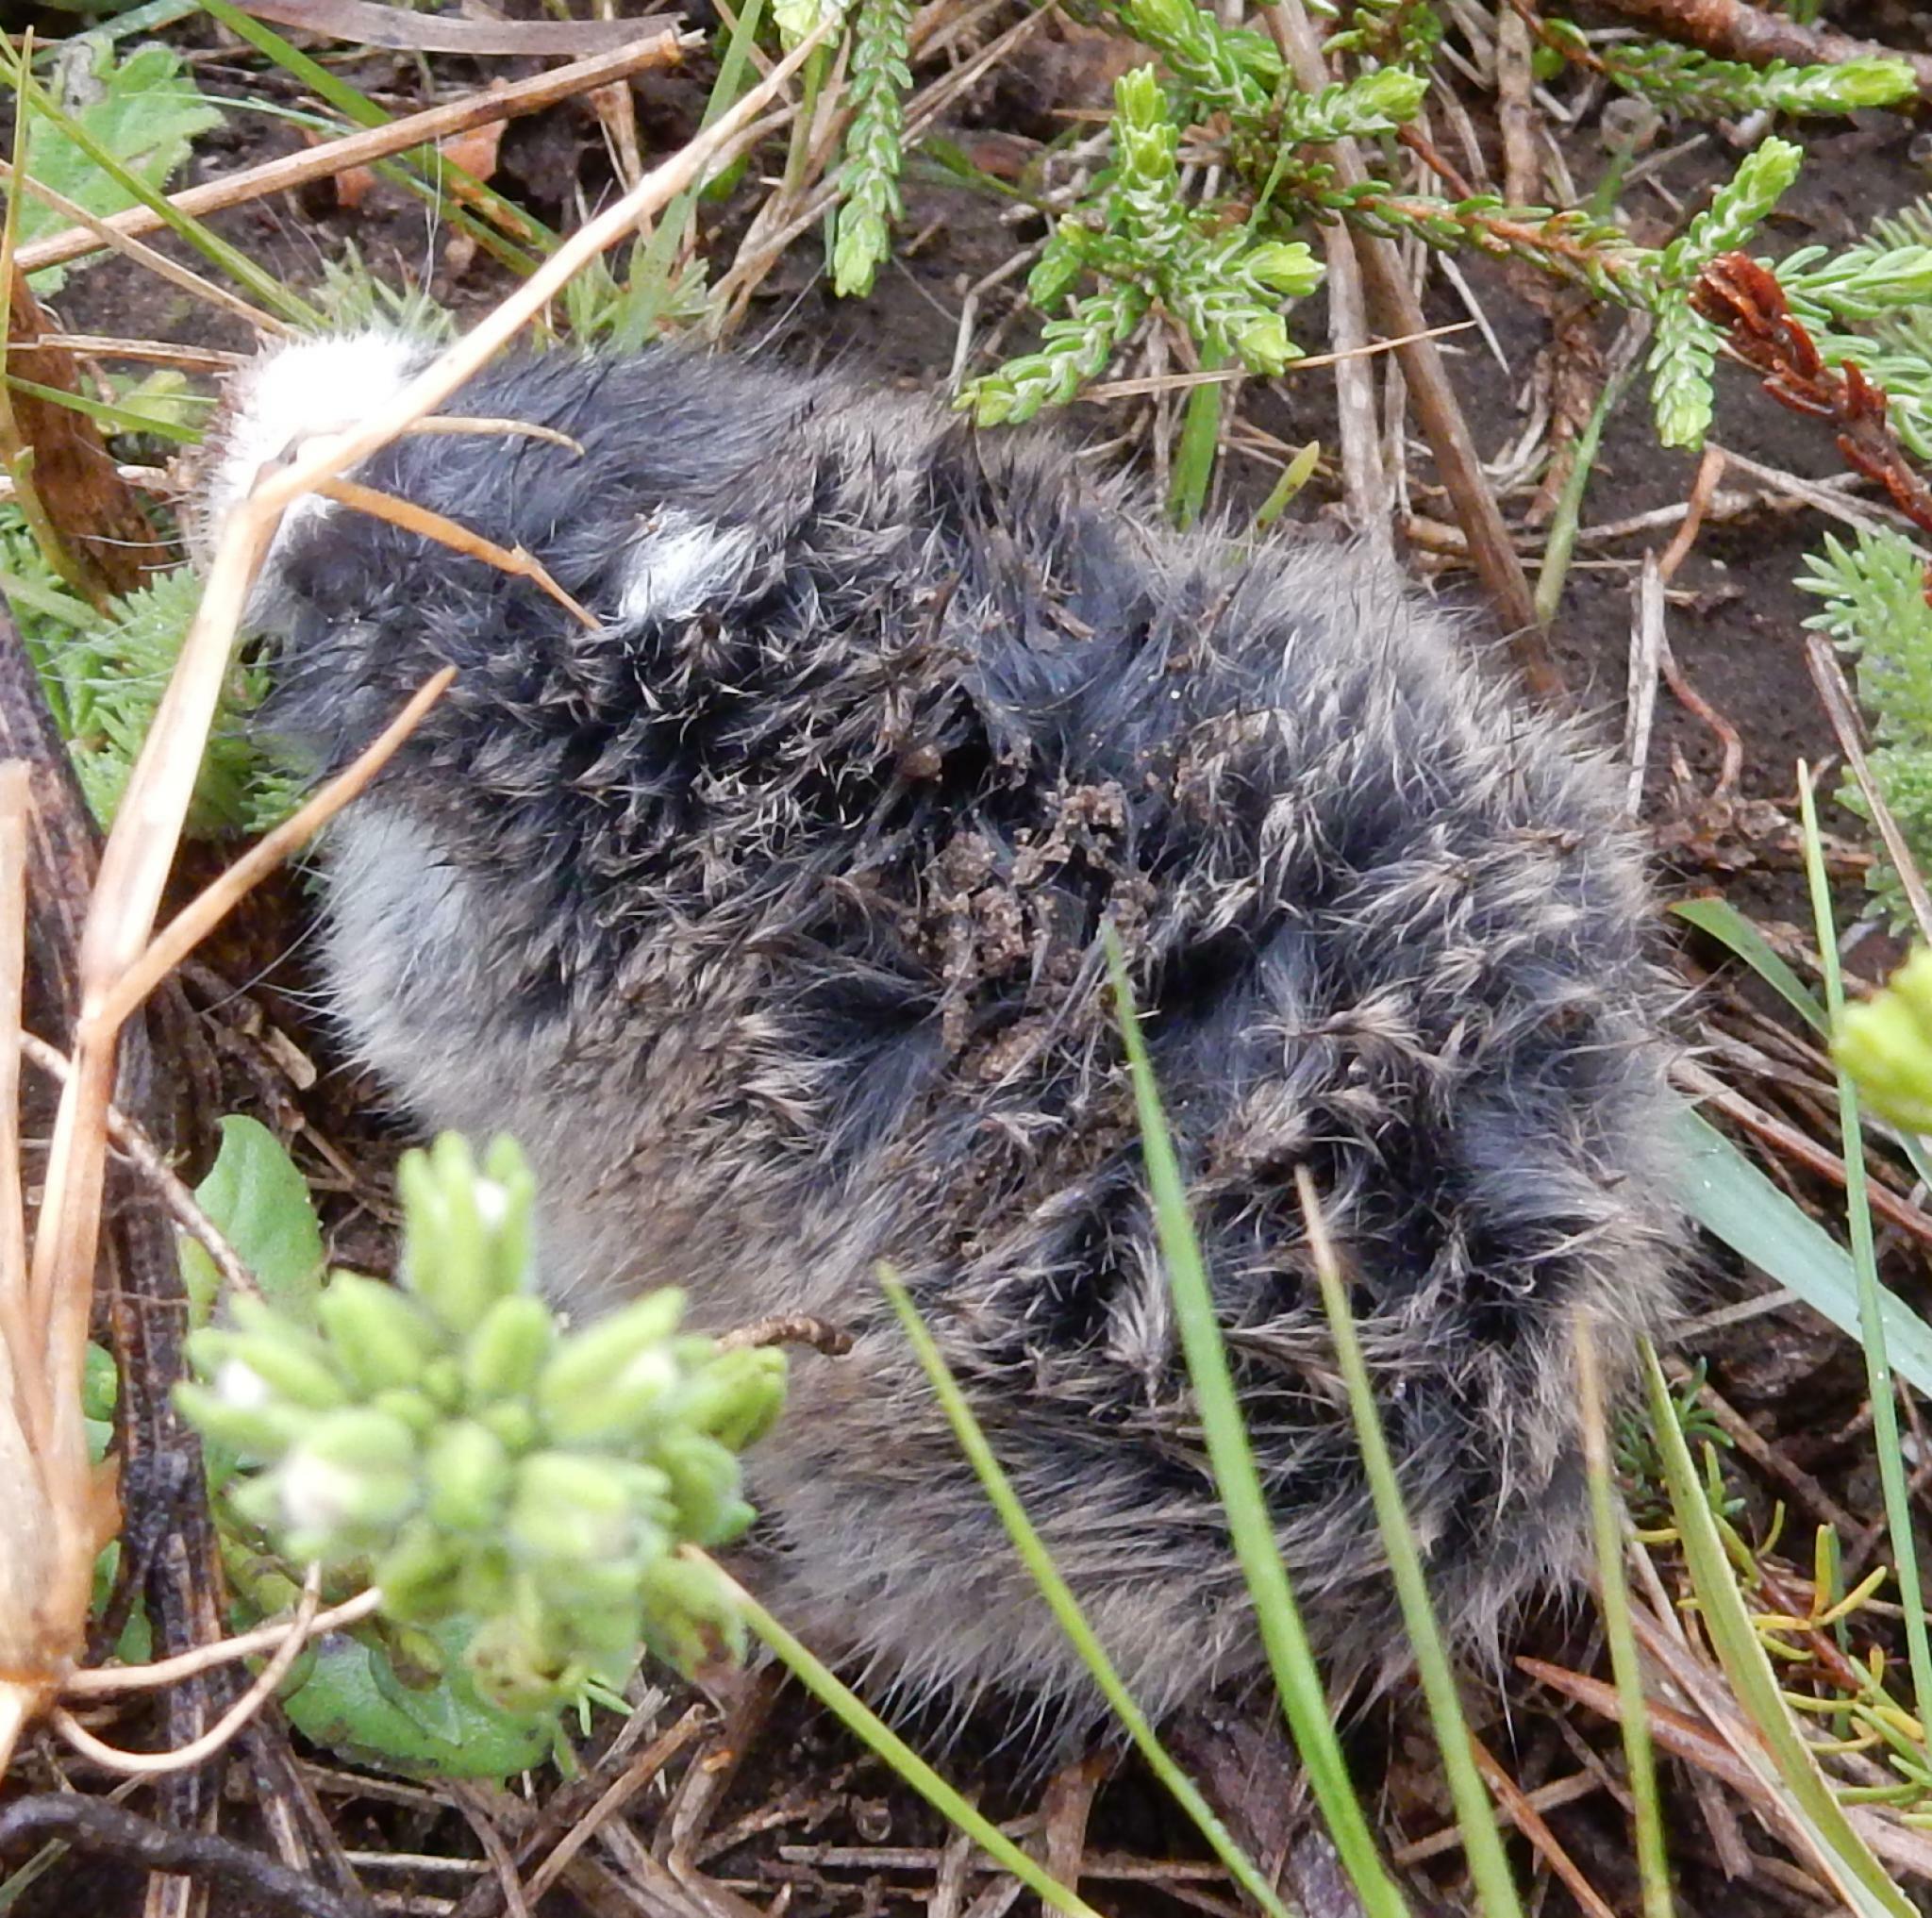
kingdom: Animalia
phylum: Chordata
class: Mammalia
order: Rodentia
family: Bathyergidae
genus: Georychus
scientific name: Georychus capensis
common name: Cape mole-rat
